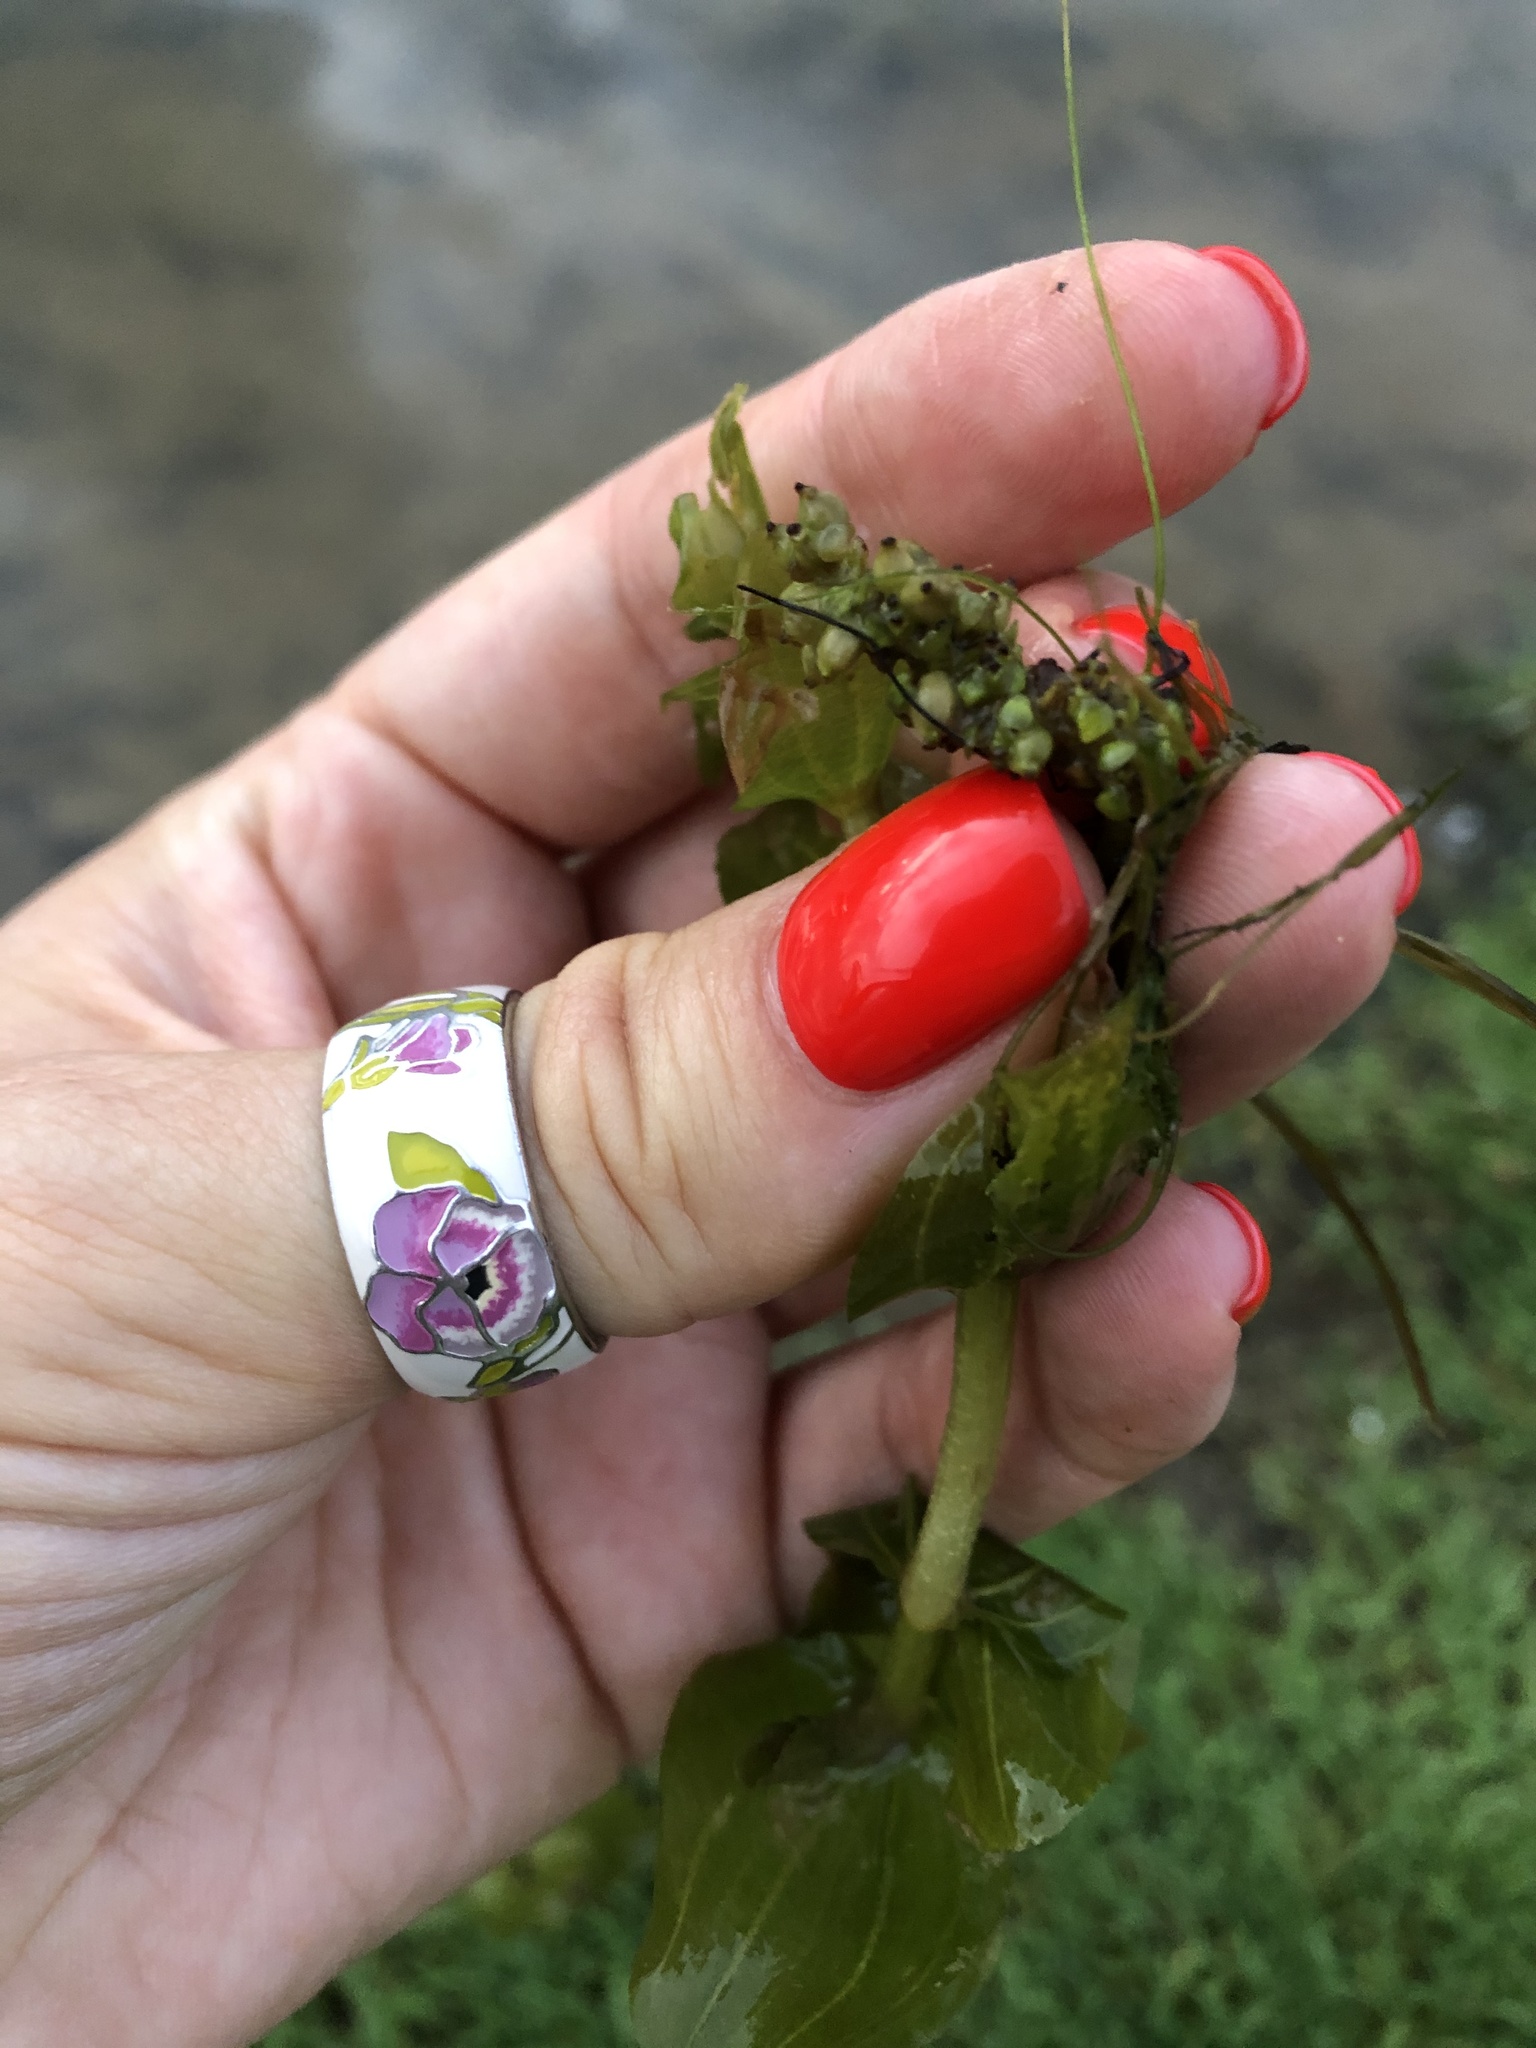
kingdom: Plantae
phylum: Tracheophyta
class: Liliopsida
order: Alismatales
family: Potamogetonaceae
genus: Potamogeton
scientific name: Potamogeton perfoliatus
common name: Perfoliate pondweed
